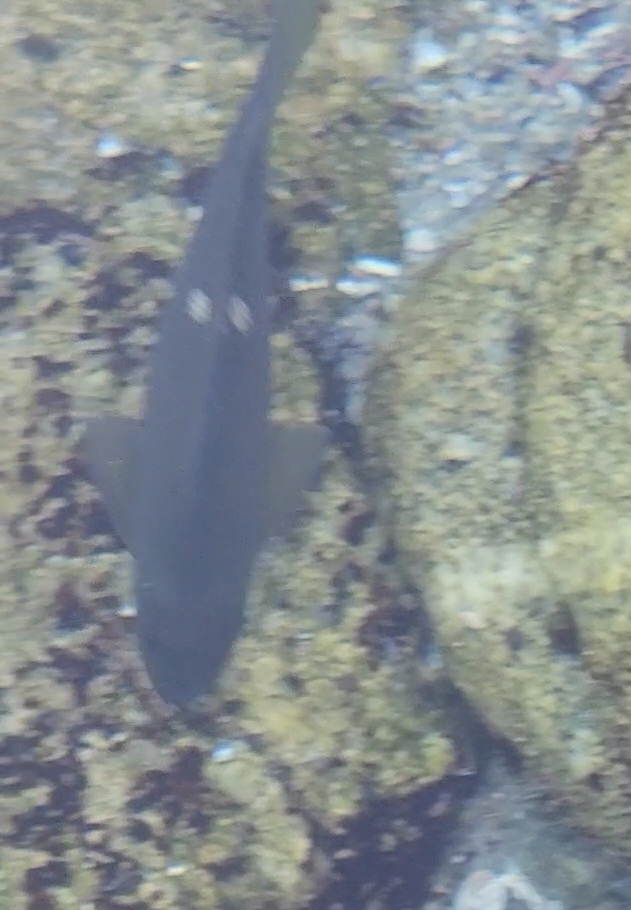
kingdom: Animalia
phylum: Chordata
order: Perciformes
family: Kyphosidae
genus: Girella
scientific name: Girella nigricans
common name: Opaleye
